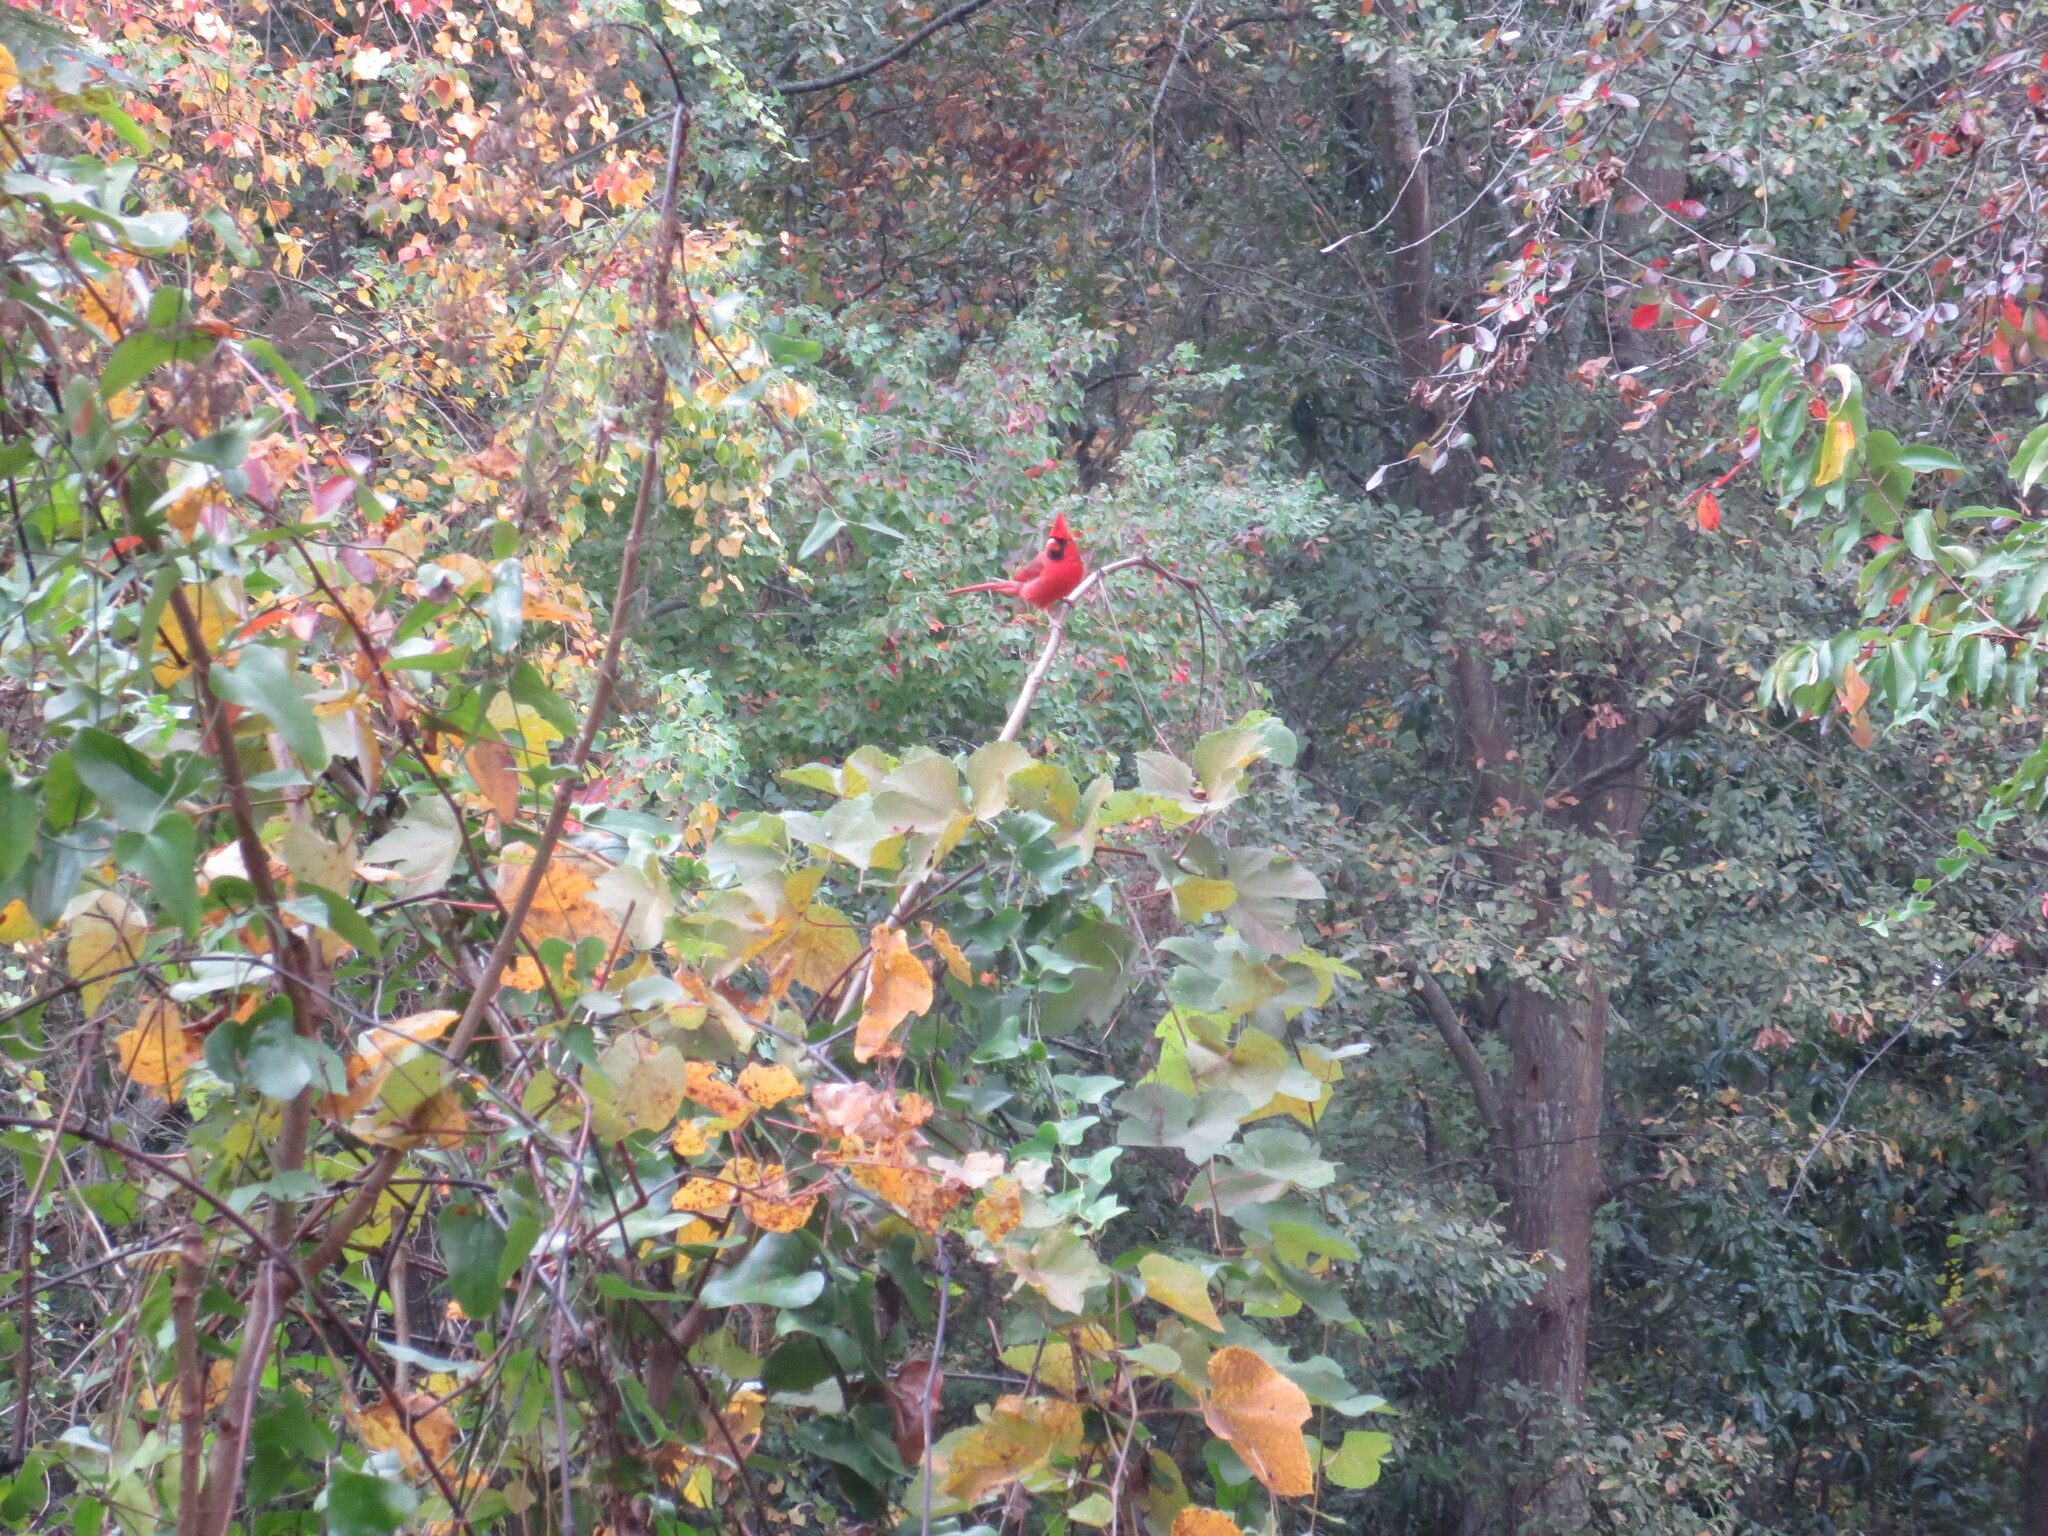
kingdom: Animalia
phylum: Chordata
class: Aves
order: Passeriformes
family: Cardinalidae
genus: Cardinalis
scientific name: Cardinalis cardinalis
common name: Northern cardinal
